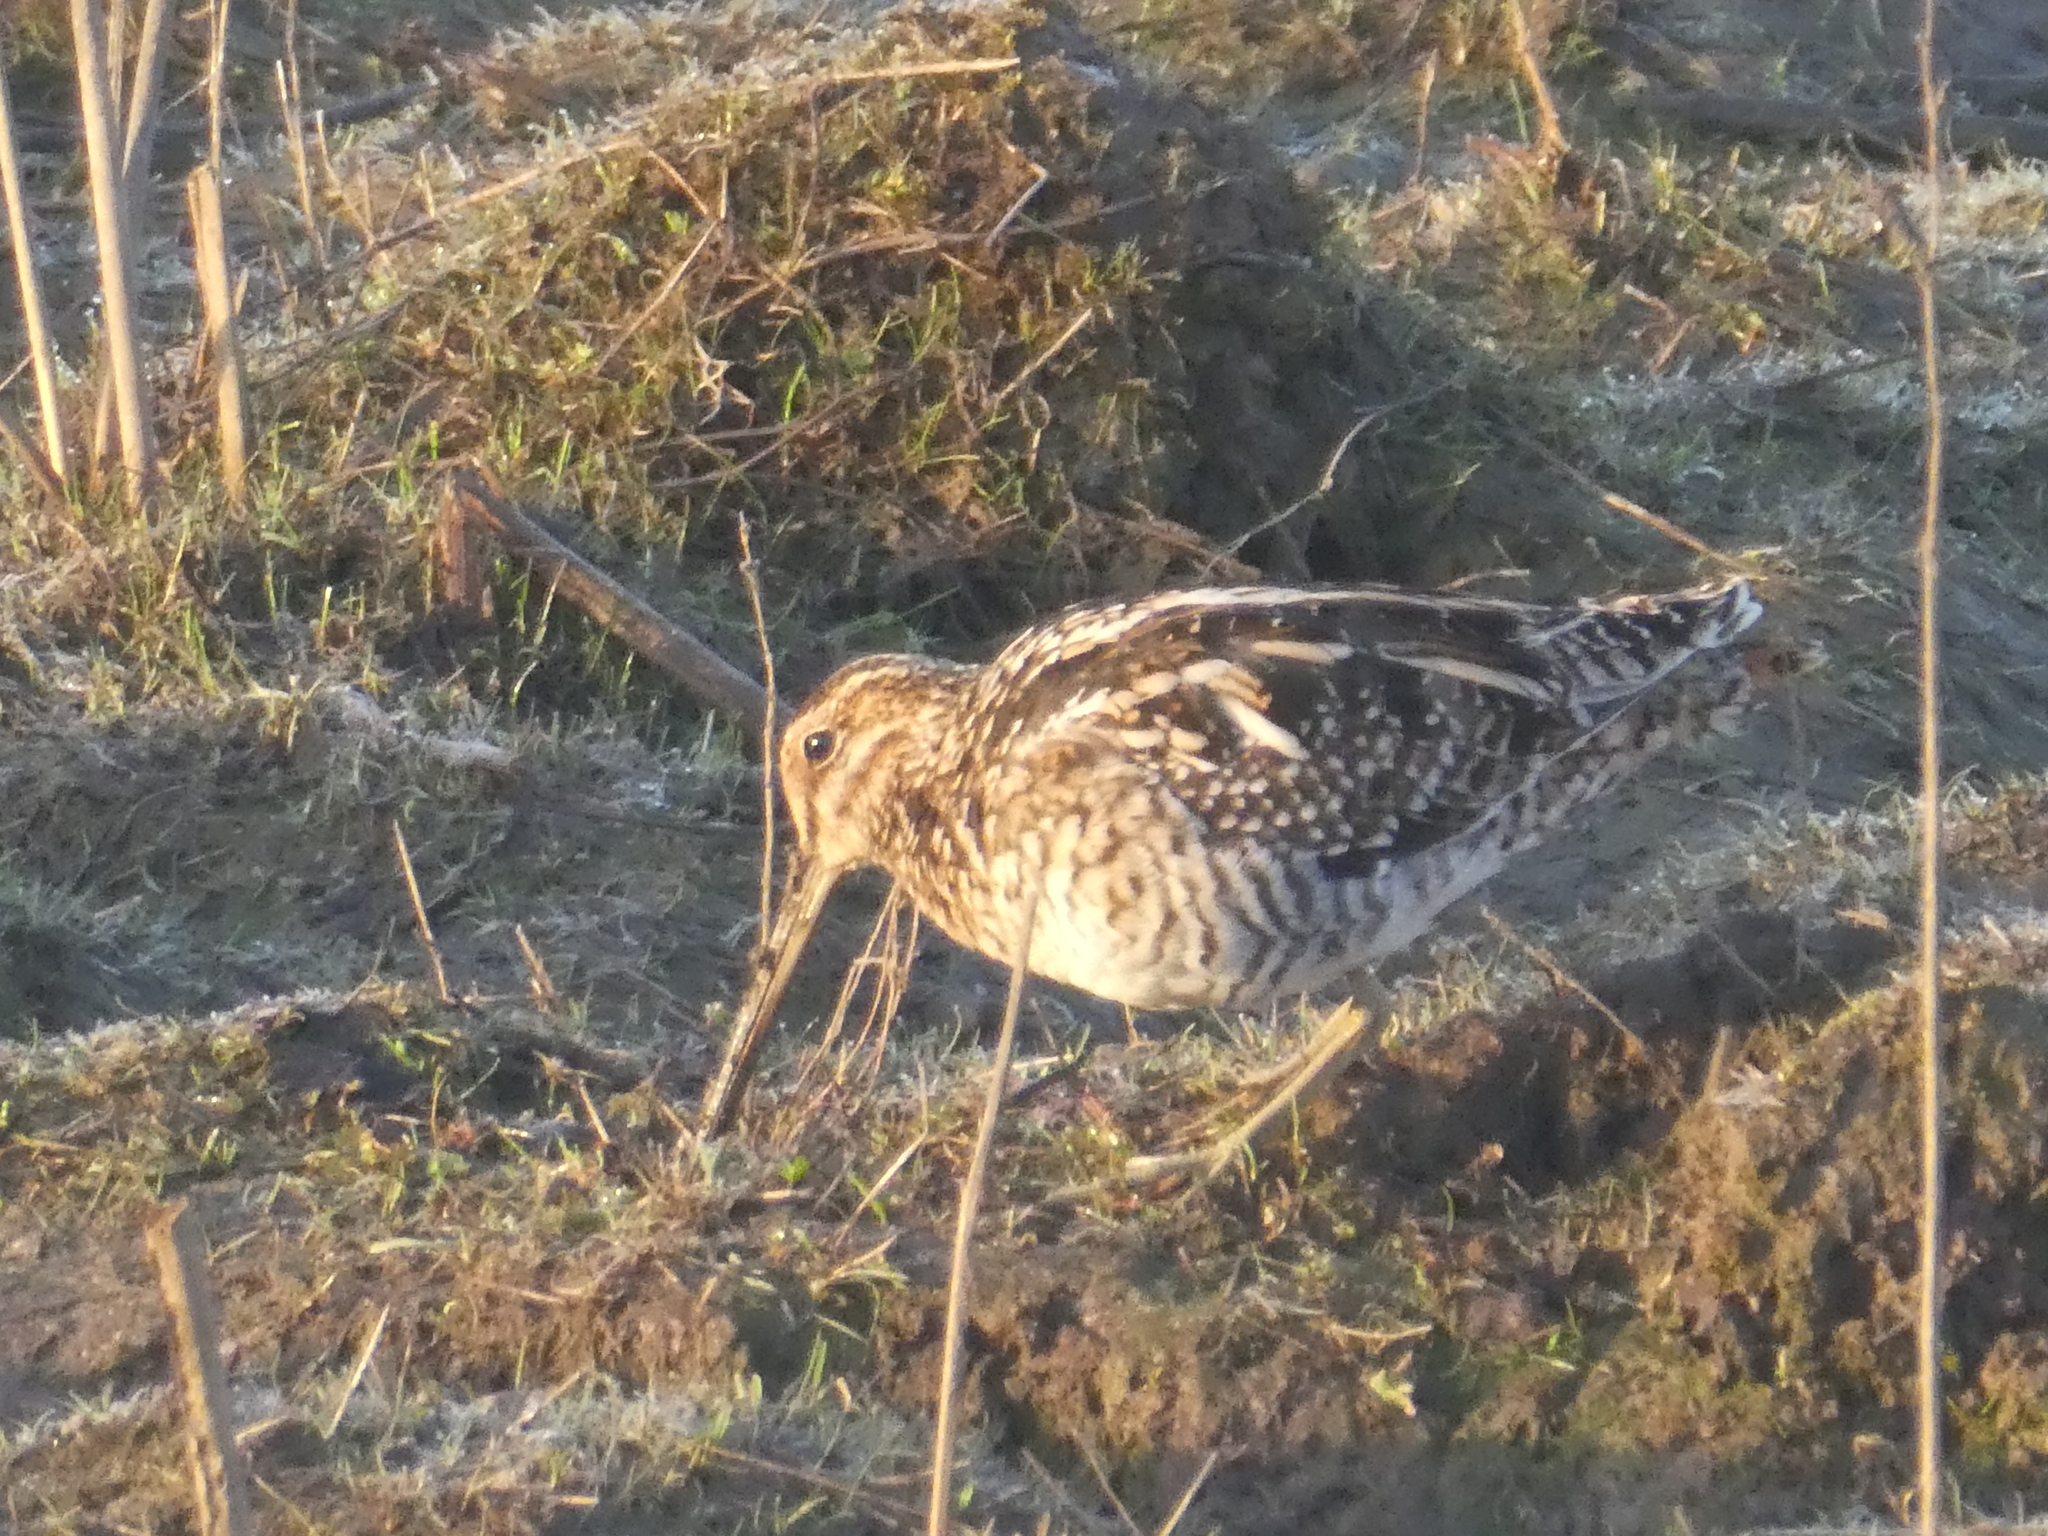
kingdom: Animalia
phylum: Chordata
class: Aves
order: Charadriiformes
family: Scolopacidae
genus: Gallinago
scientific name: Gallinago delicata
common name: Wilson's snipe
